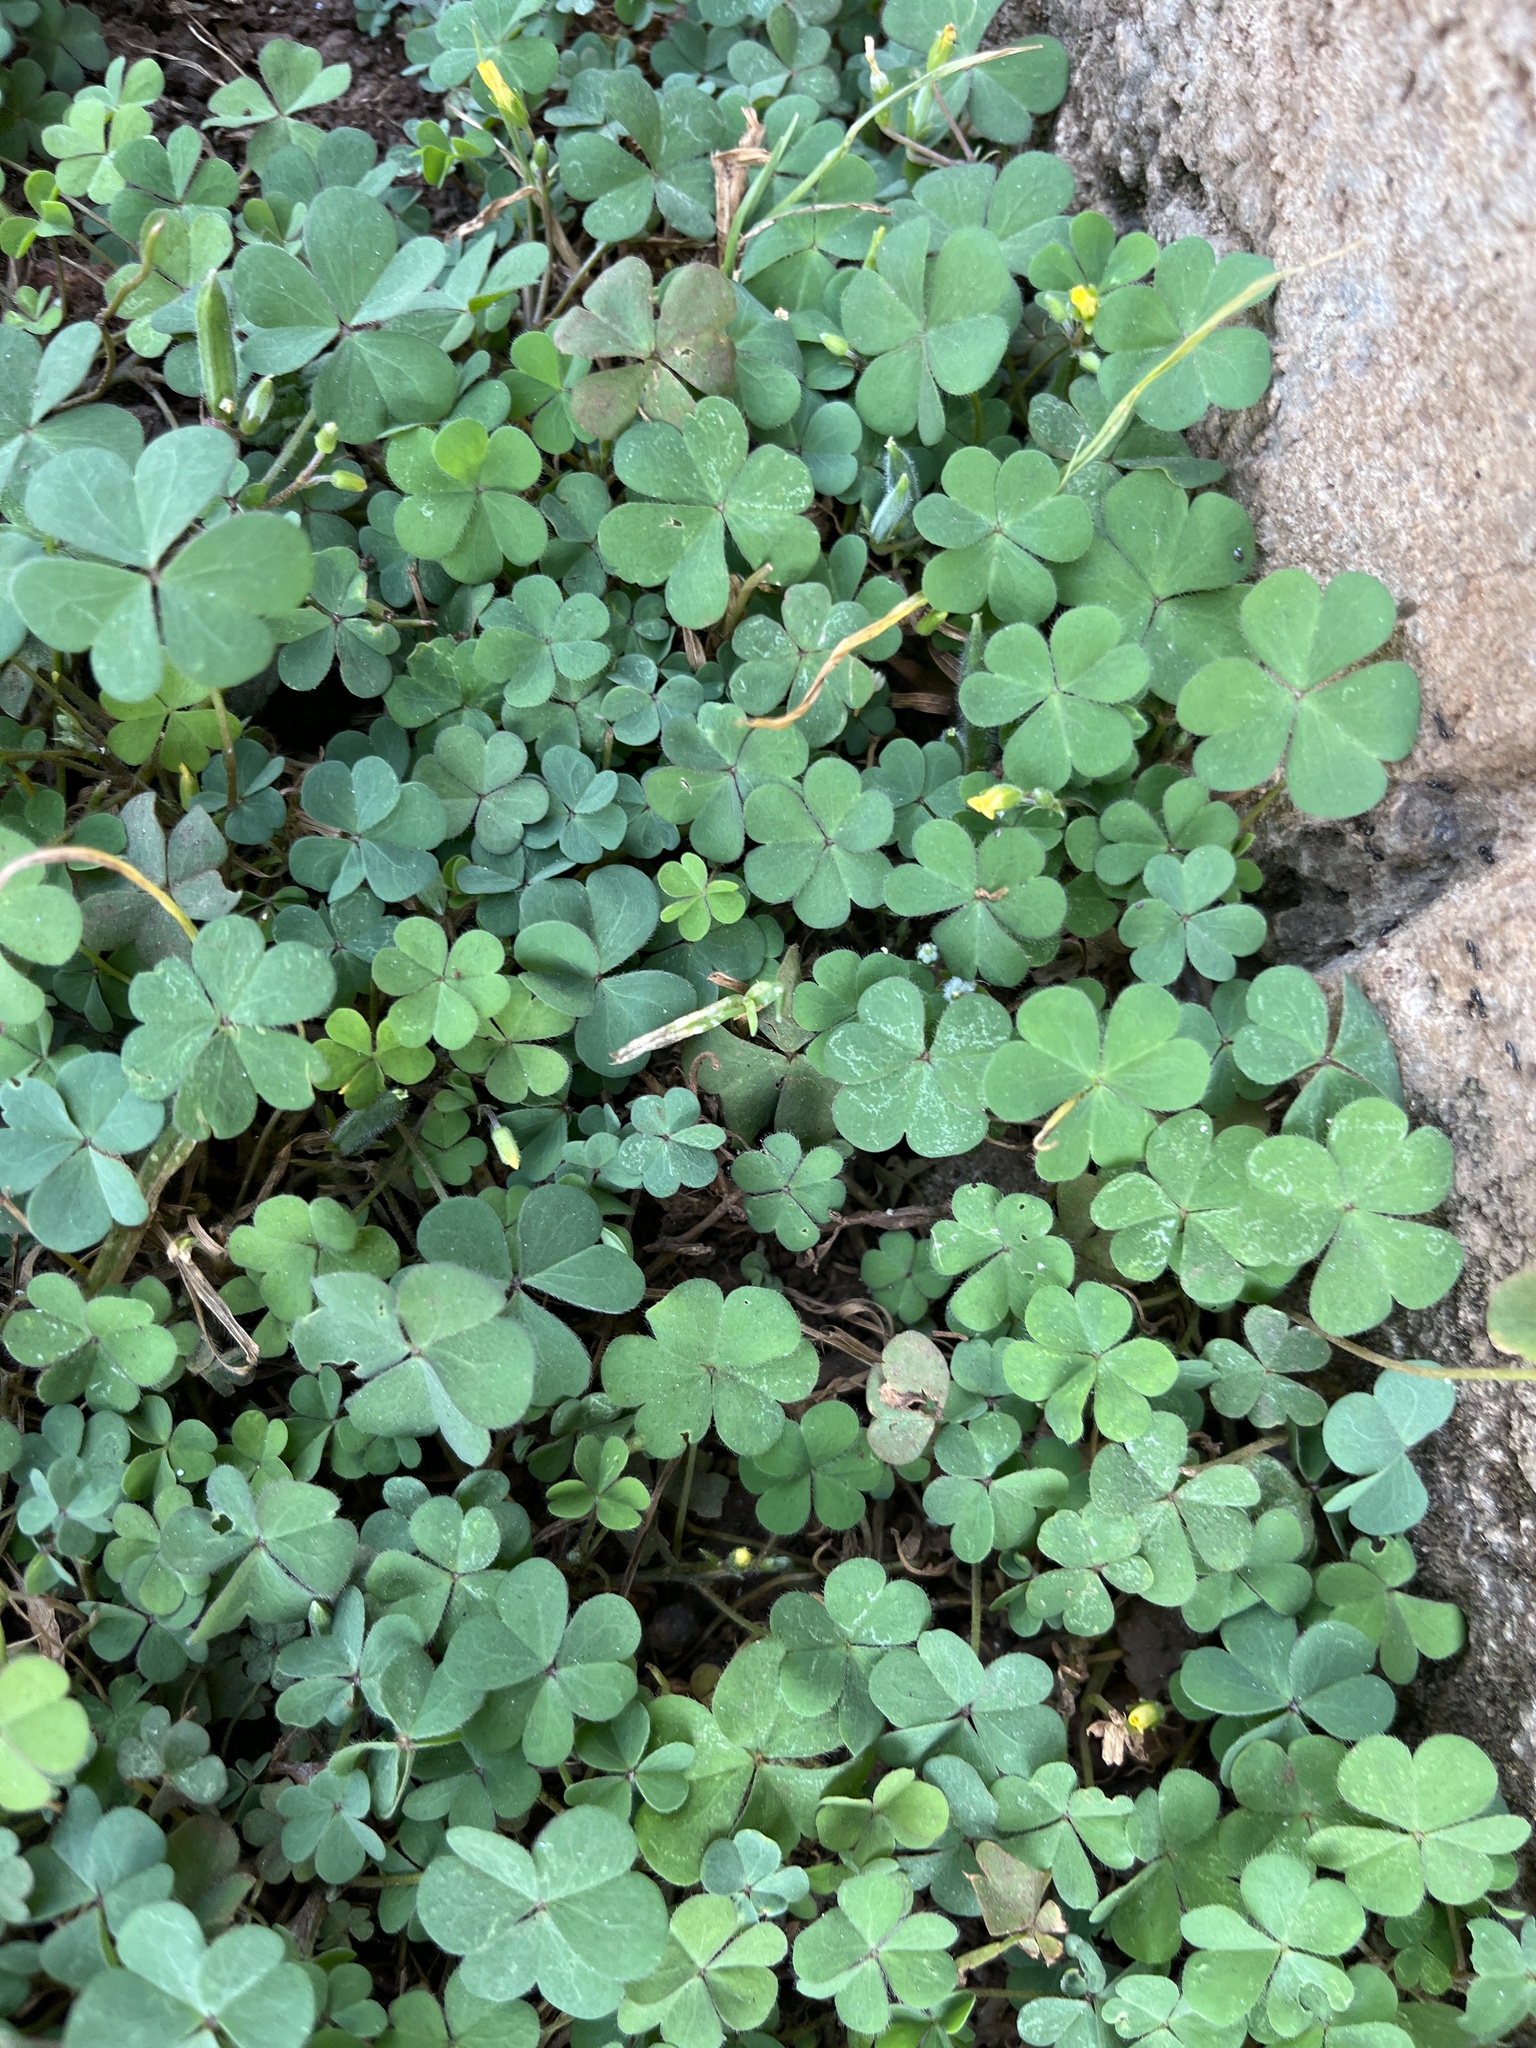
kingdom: Plantae
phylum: Tracheophyta
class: Magnoliopsida
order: Oxalidales
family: Oxalidaceae
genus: Oxalis
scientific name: Oxalis corniculata
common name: Procumbent yellow-sorrel
